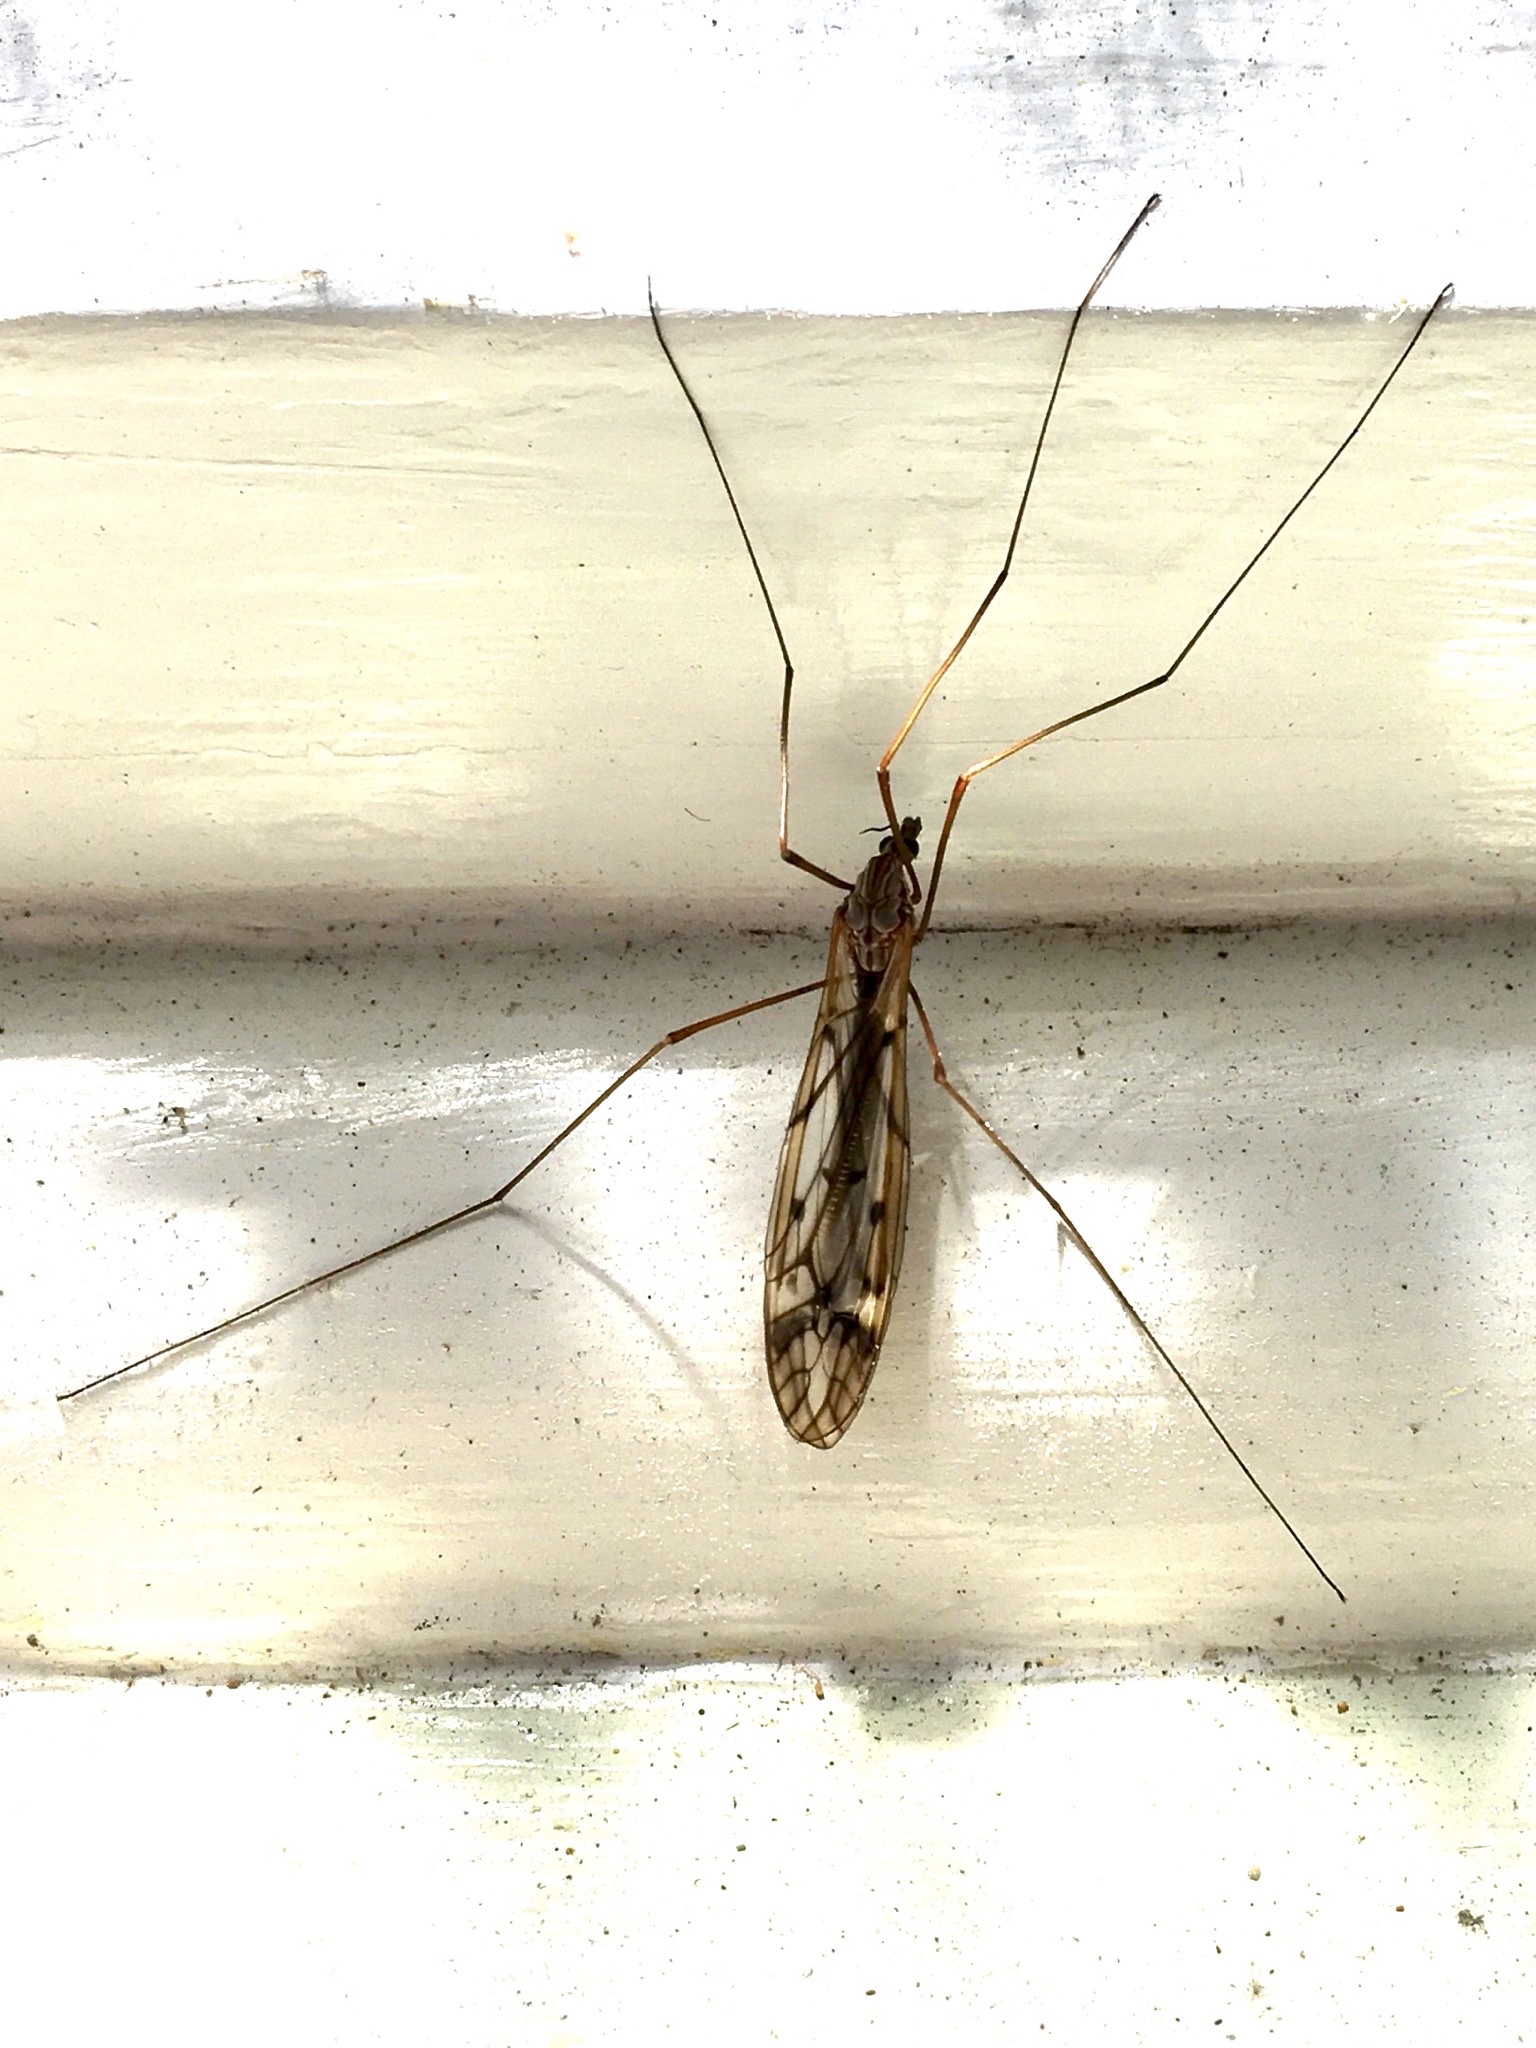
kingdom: Animalia
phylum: Arthropoda
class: Insecta
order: Diptera
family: Tipulidae
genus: Zelandotipula
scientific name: Zelandotipula novarae
